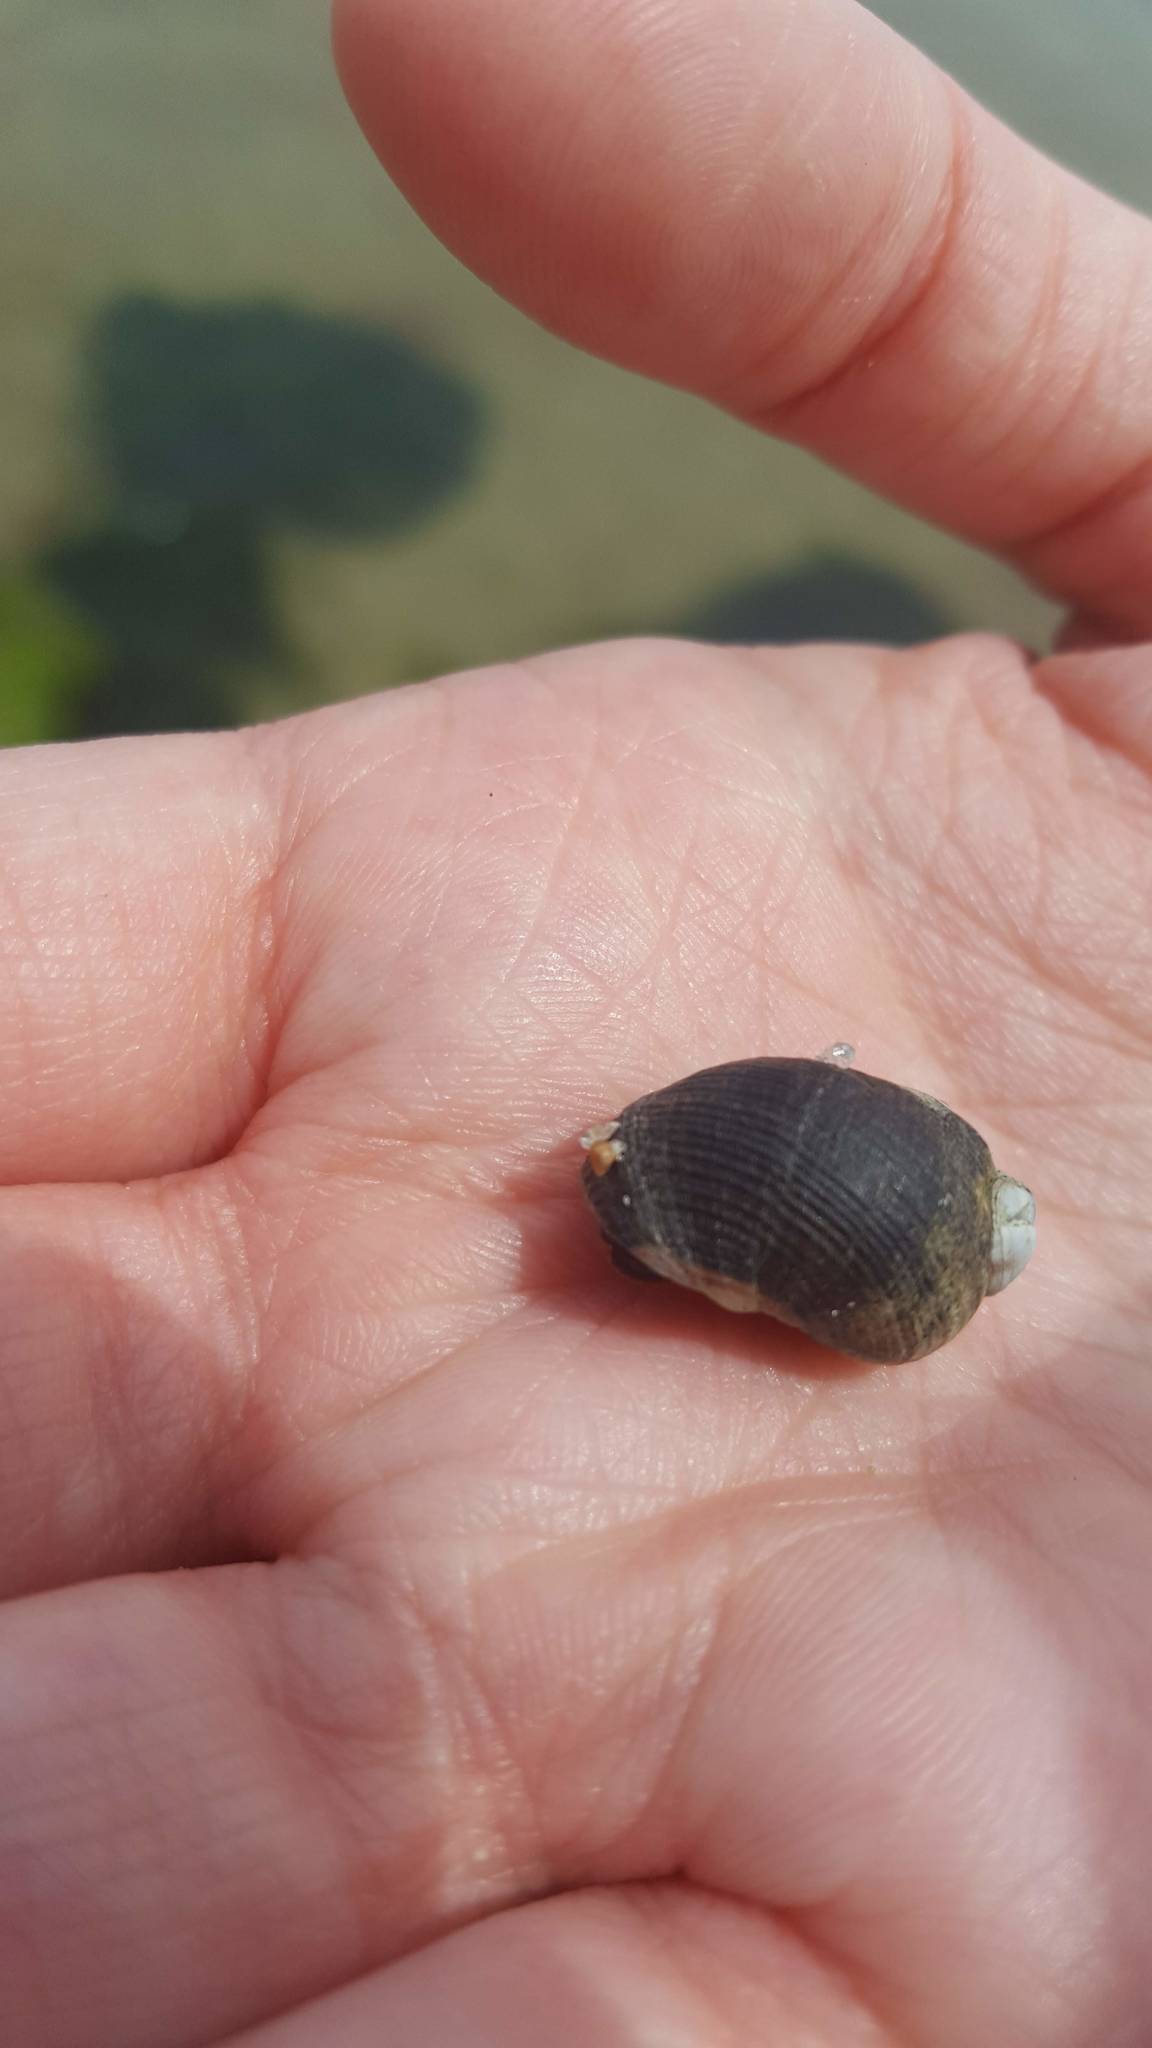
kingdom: Animalia
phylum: Mollusca
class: Gastropoda
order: Littorinimorpha
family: Littorinidae
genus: Littorina
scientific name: Littorina littorea
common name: Common periwinkle
